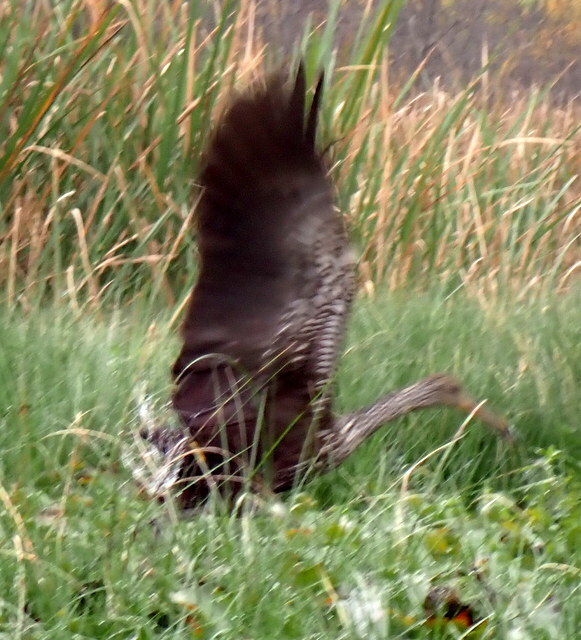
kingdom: Animalia
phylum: Chordata
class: Aves
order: Gruiformes
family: Aramidae
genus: Aramus
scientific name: Aramus guarauna
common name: Limpkin
